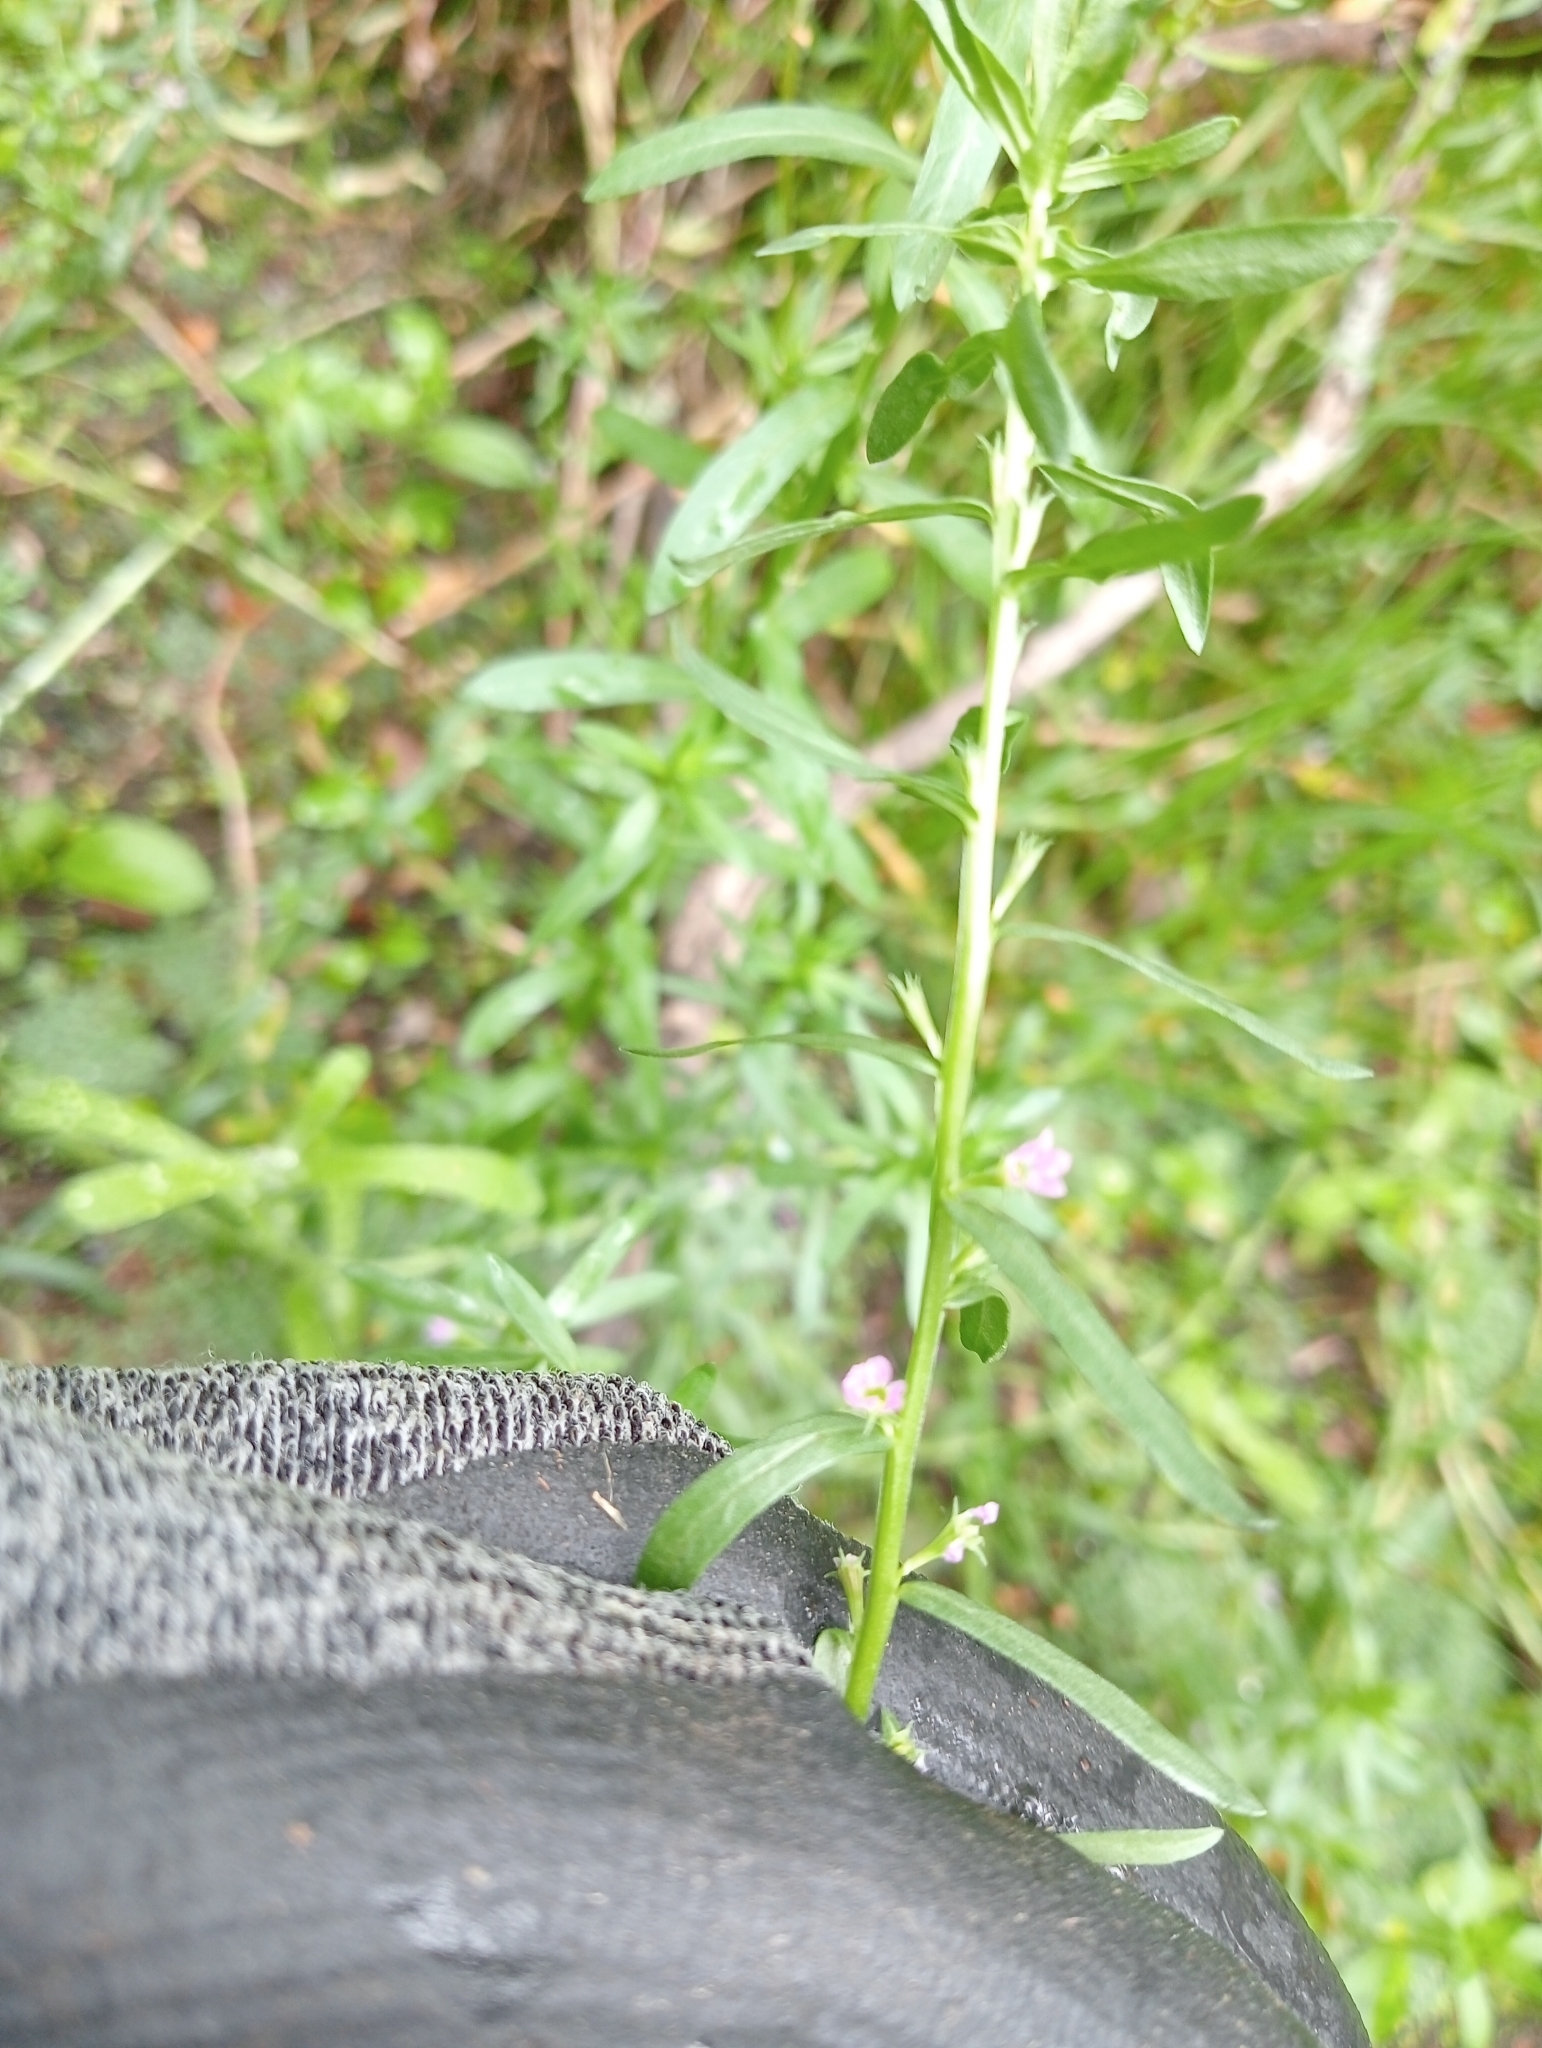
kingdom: Plantae
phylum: Tracheophyta
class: Magnoliopsida
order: Myrtales
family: Lythraceae
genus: Lythrum
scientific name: Lythrum hyssopifolia
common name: Grass-poly
